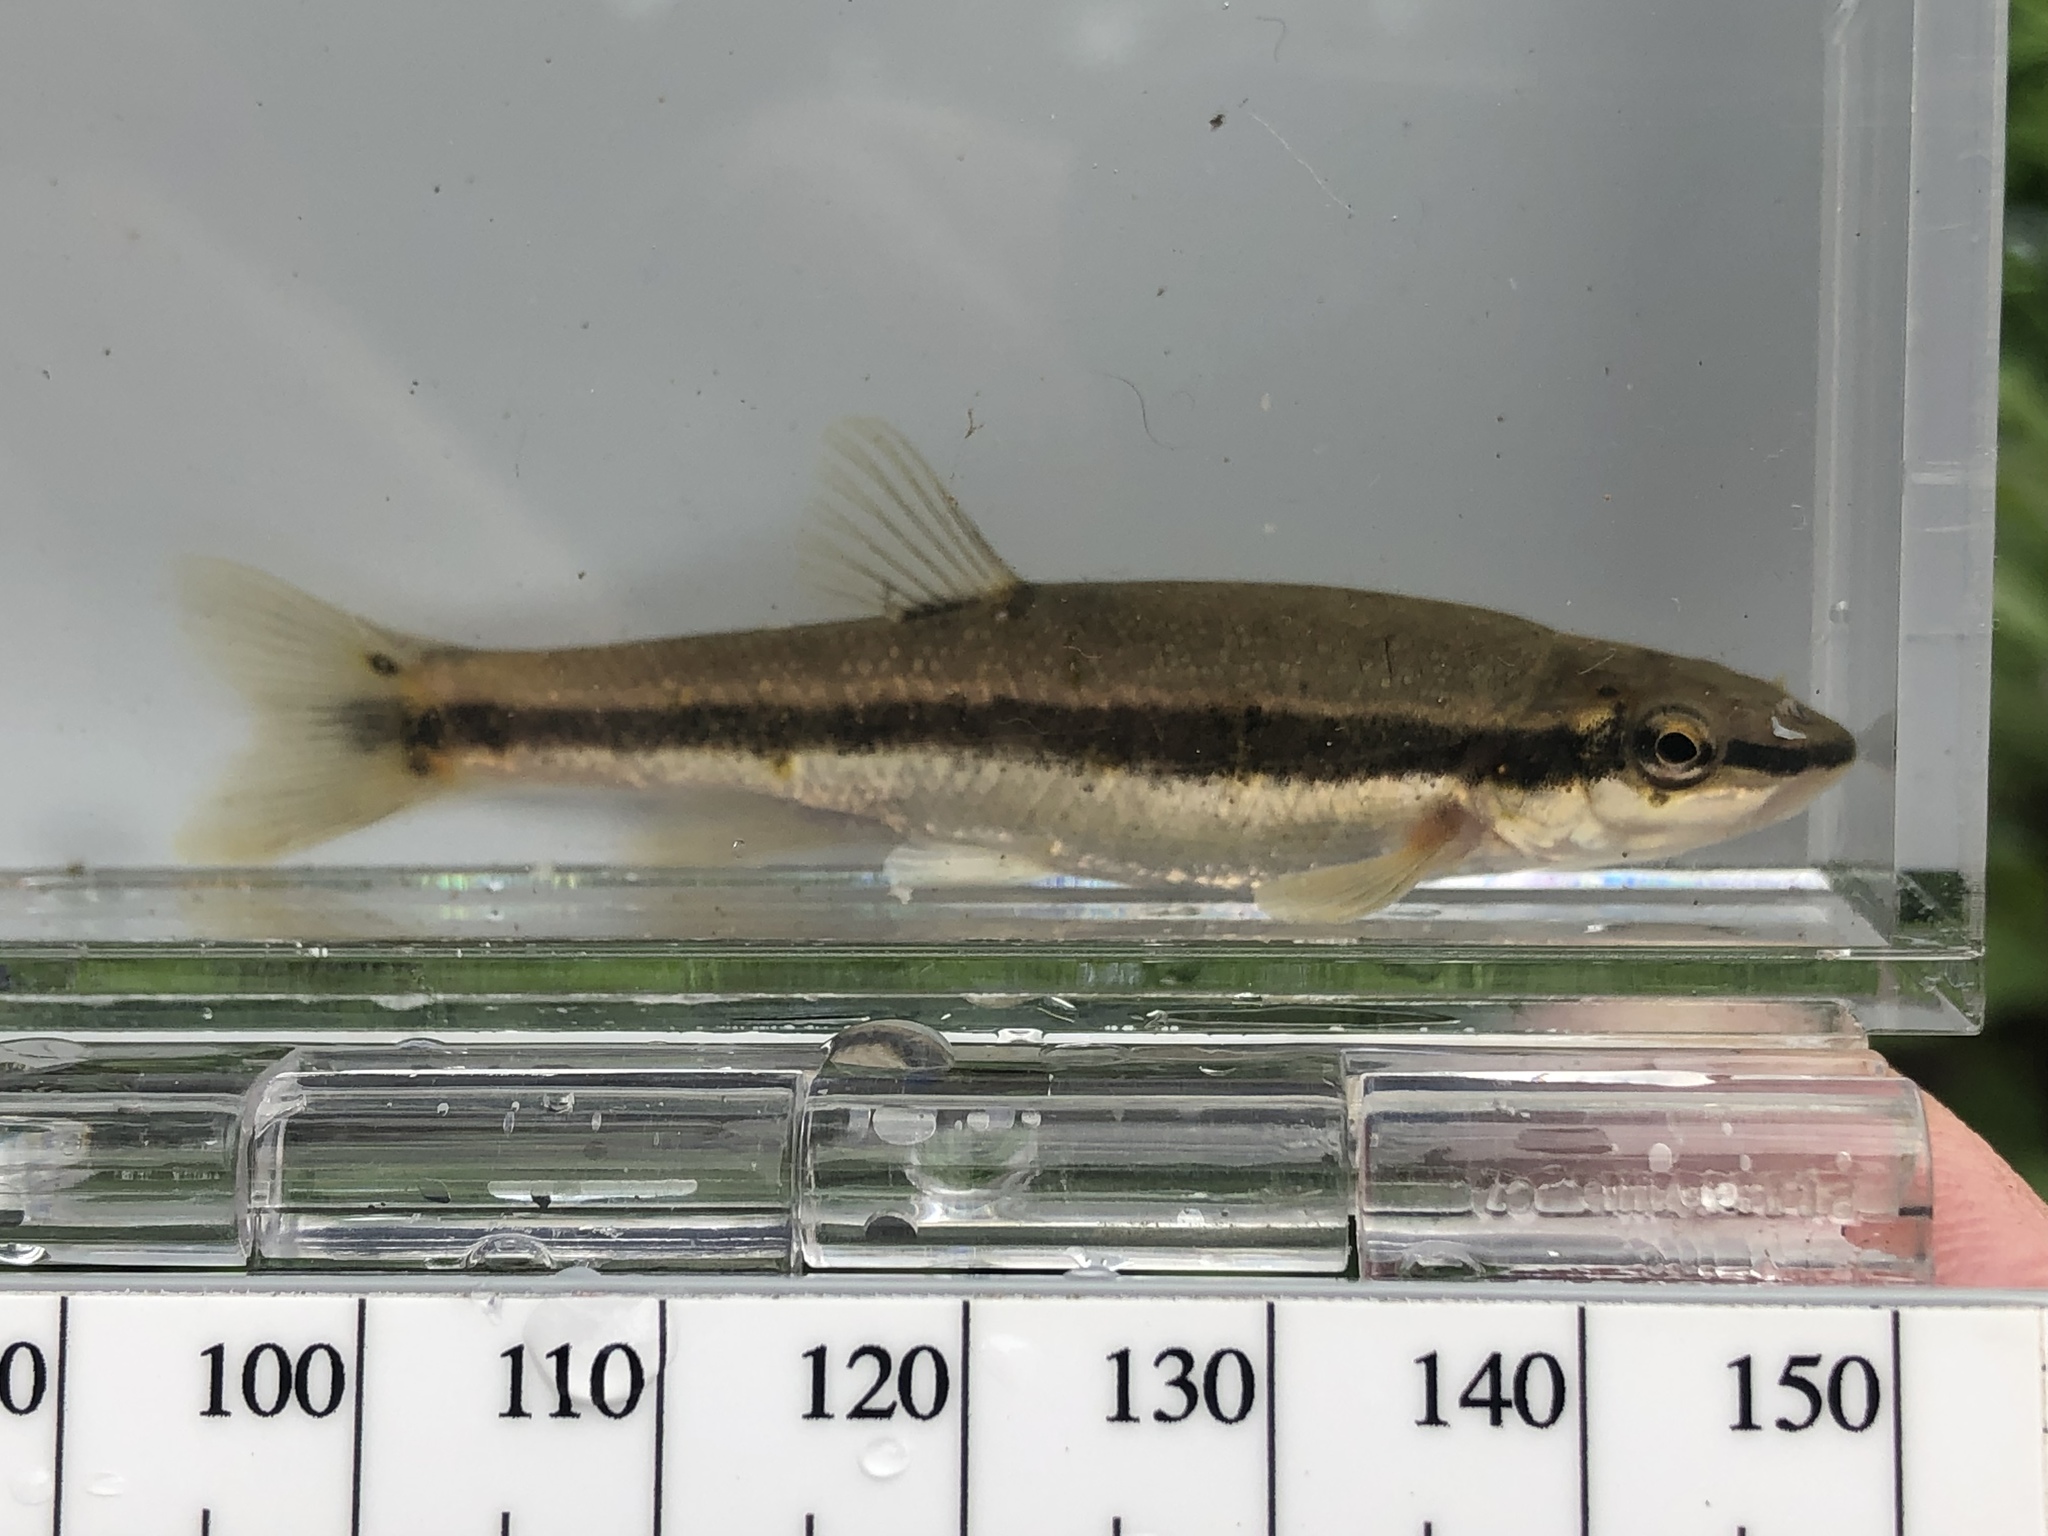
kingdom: Animalia
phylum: Chordata
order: Cypriniformes
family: Cyprinidae
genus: Rhinichthys
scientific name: Rhinichthys atratulus
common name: Eastern blacknose dace
